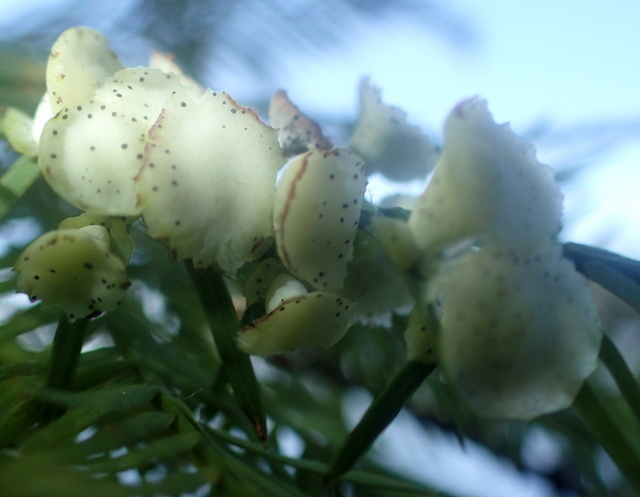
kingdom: Animalia
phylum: Arthropoda
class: Insecta
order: Diptera
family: Cecidomyiidae
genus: Taxodiomyia
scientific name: Taxodiomyia cupressi
